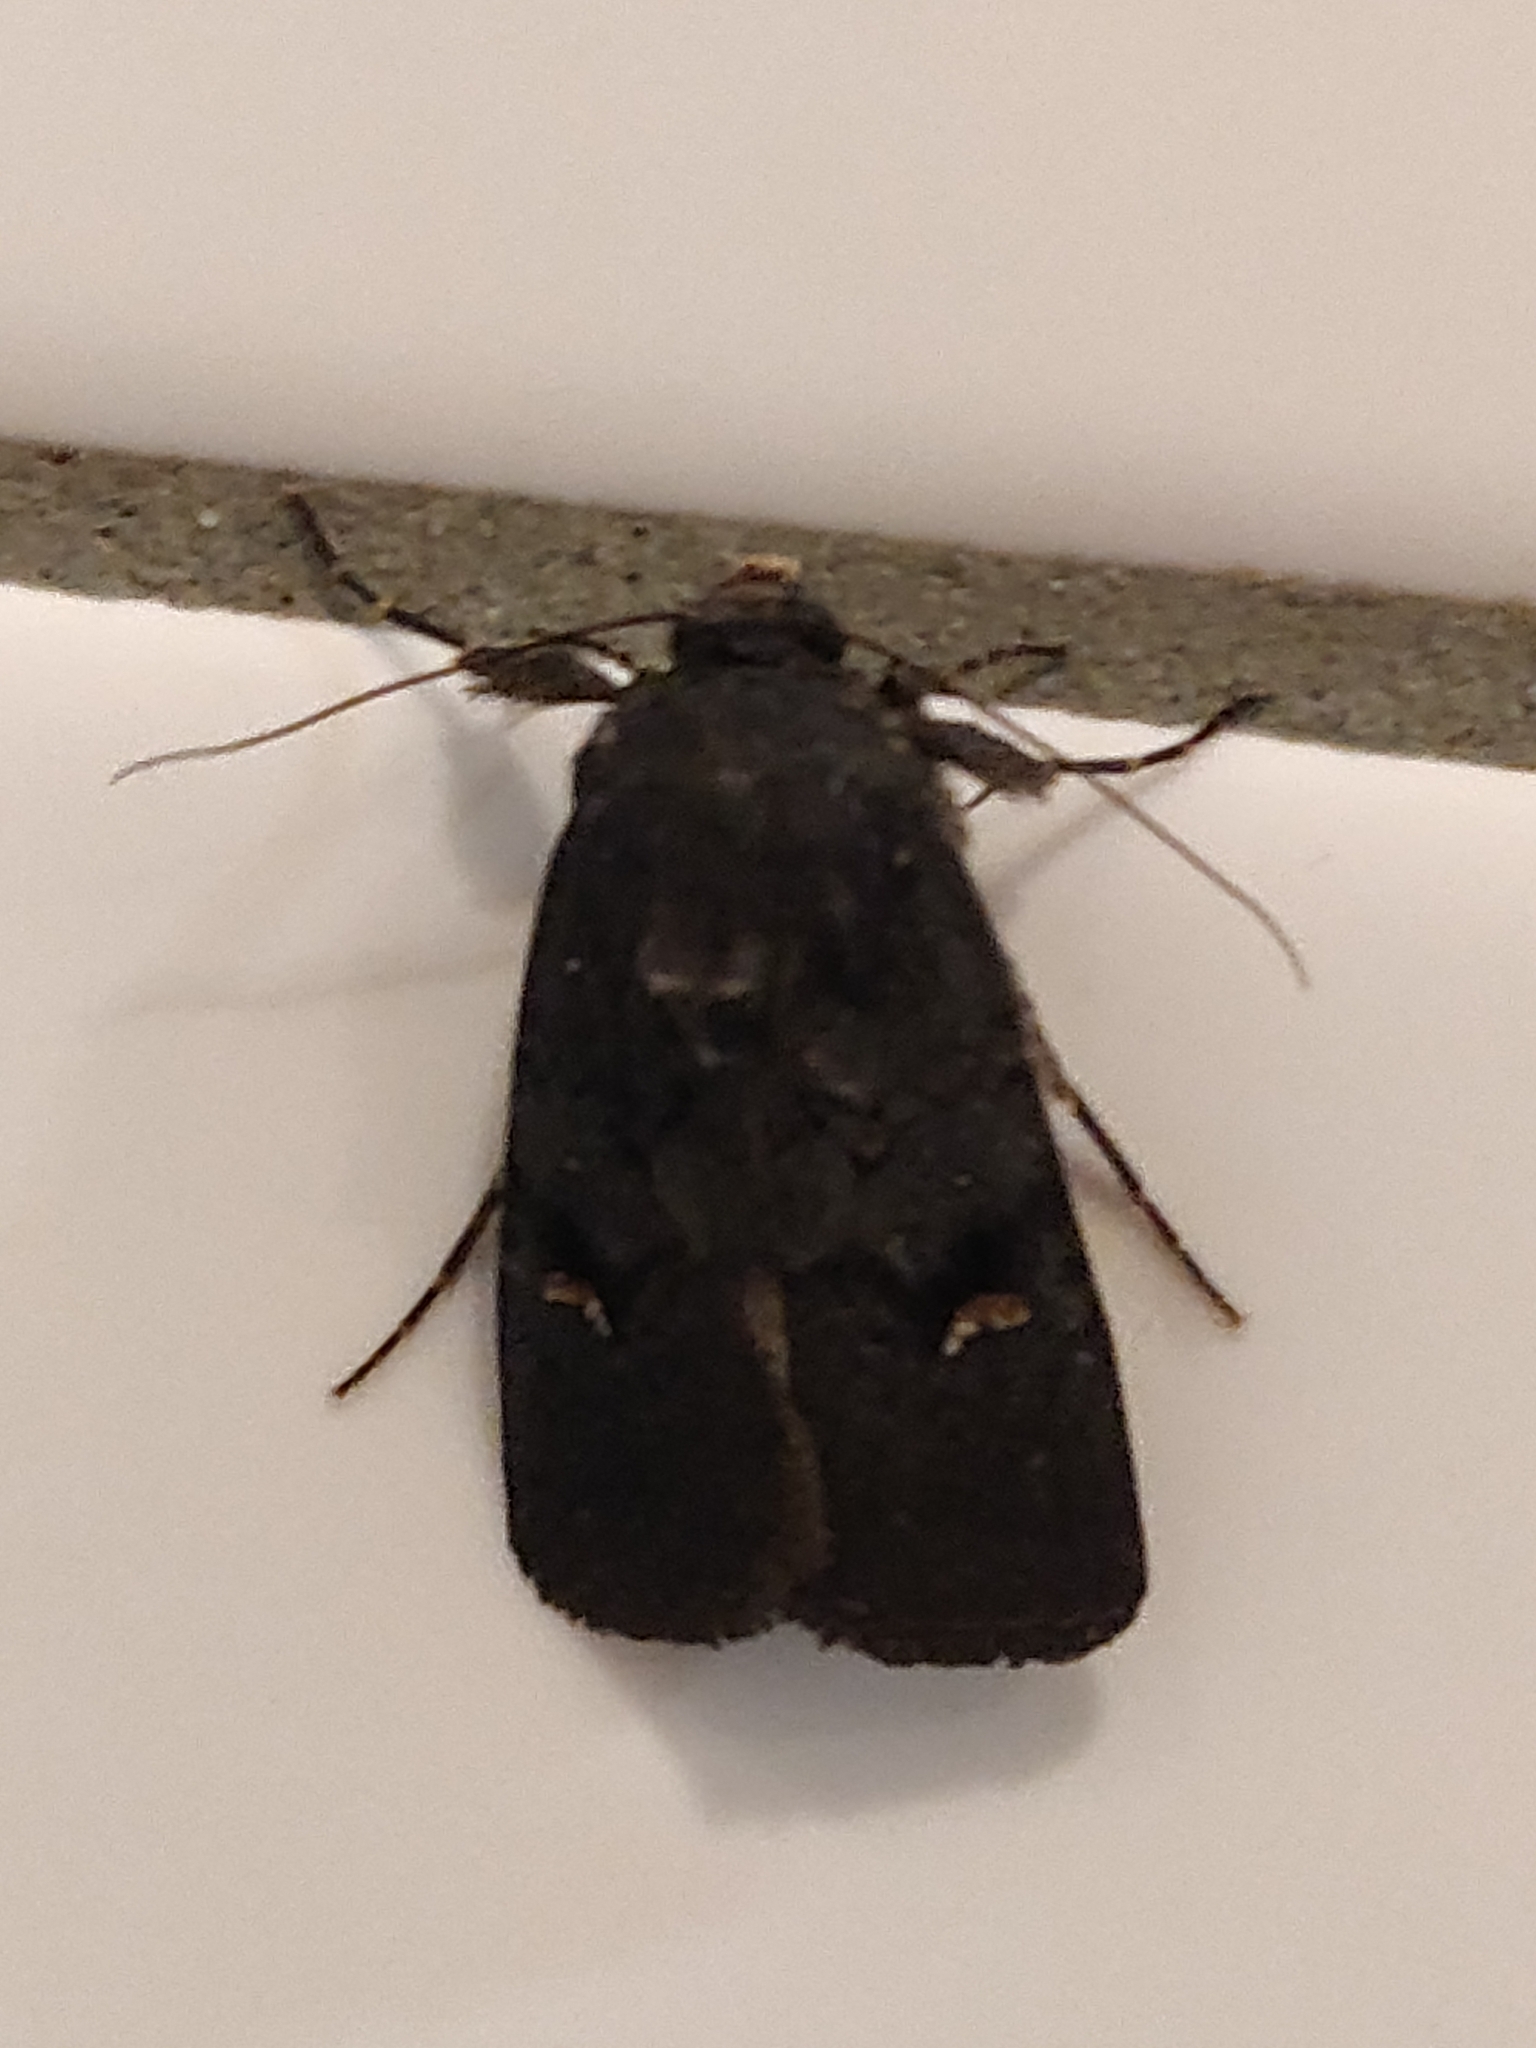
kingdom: Animalia
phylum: Arthropoda
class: Insecta
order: Lepidoptera
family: Noctuidae
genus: Proteuxoa
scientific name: Proteuxoa atra
